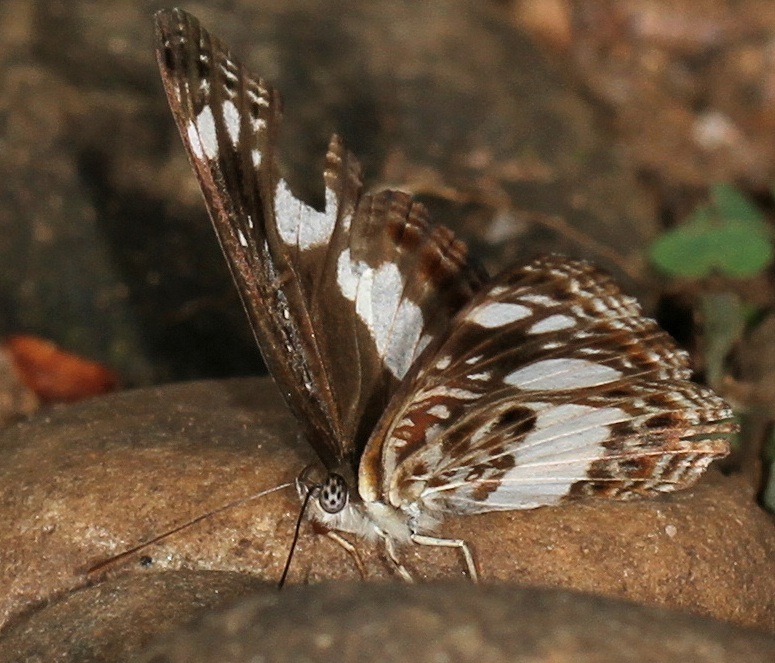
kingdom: Animalia
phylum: Arthropoda
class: Insecta
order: Lepidoptera
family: Nymphalidae
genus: Neptis
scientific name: Neptis saclava
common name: Small spotted sailor
